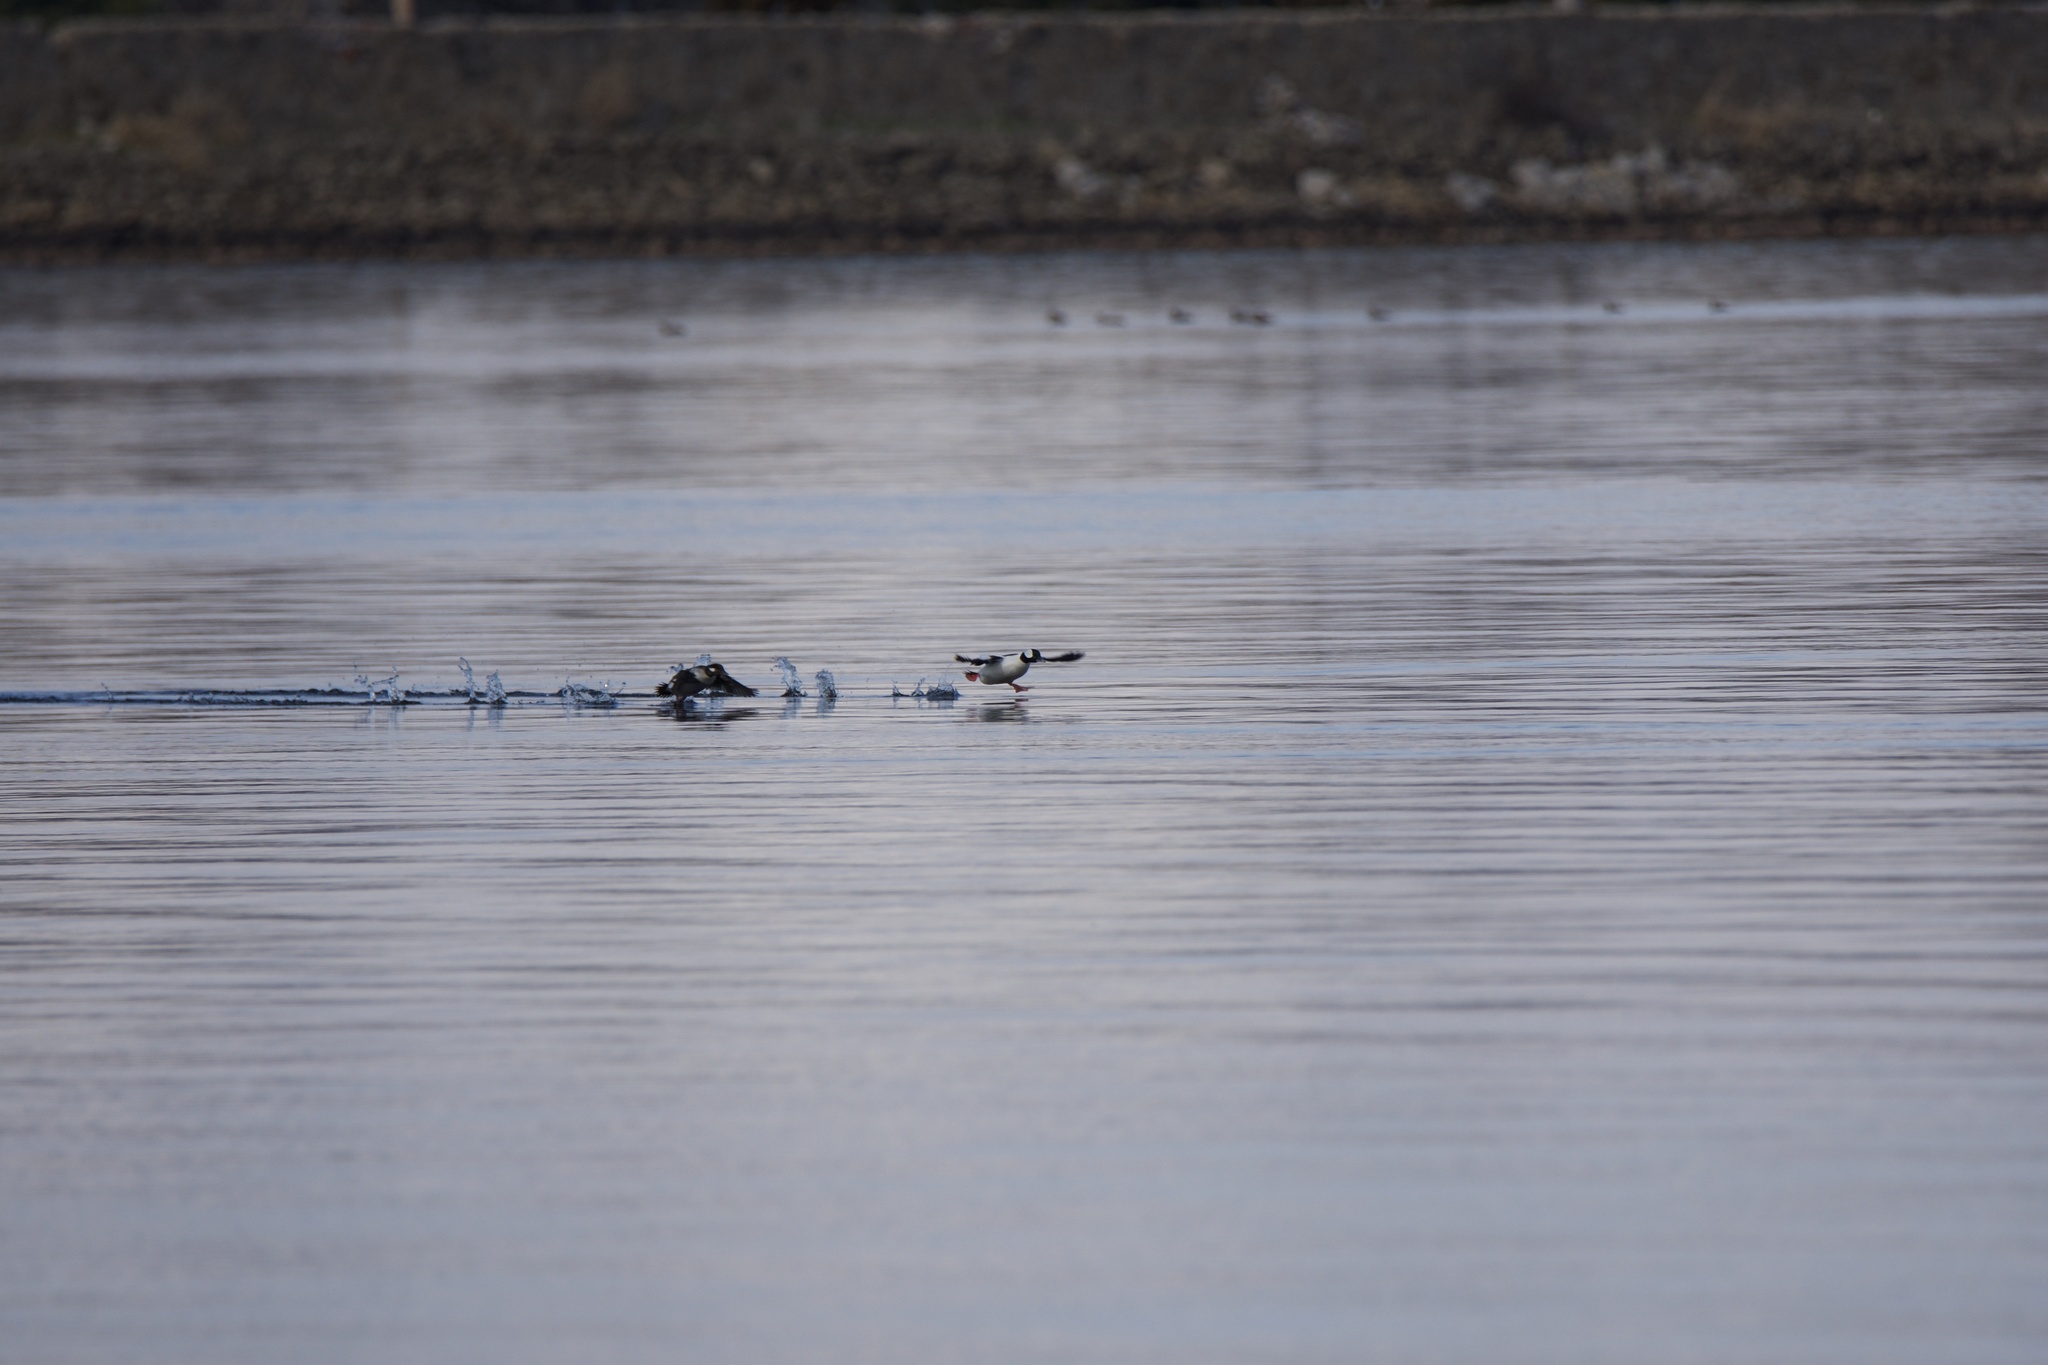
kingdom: Animalia
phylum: Chordata
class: Aves
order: Anseriformes
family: Anatidae
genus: Bucephala
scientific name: Bucephala albeola
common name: Bufflehead
